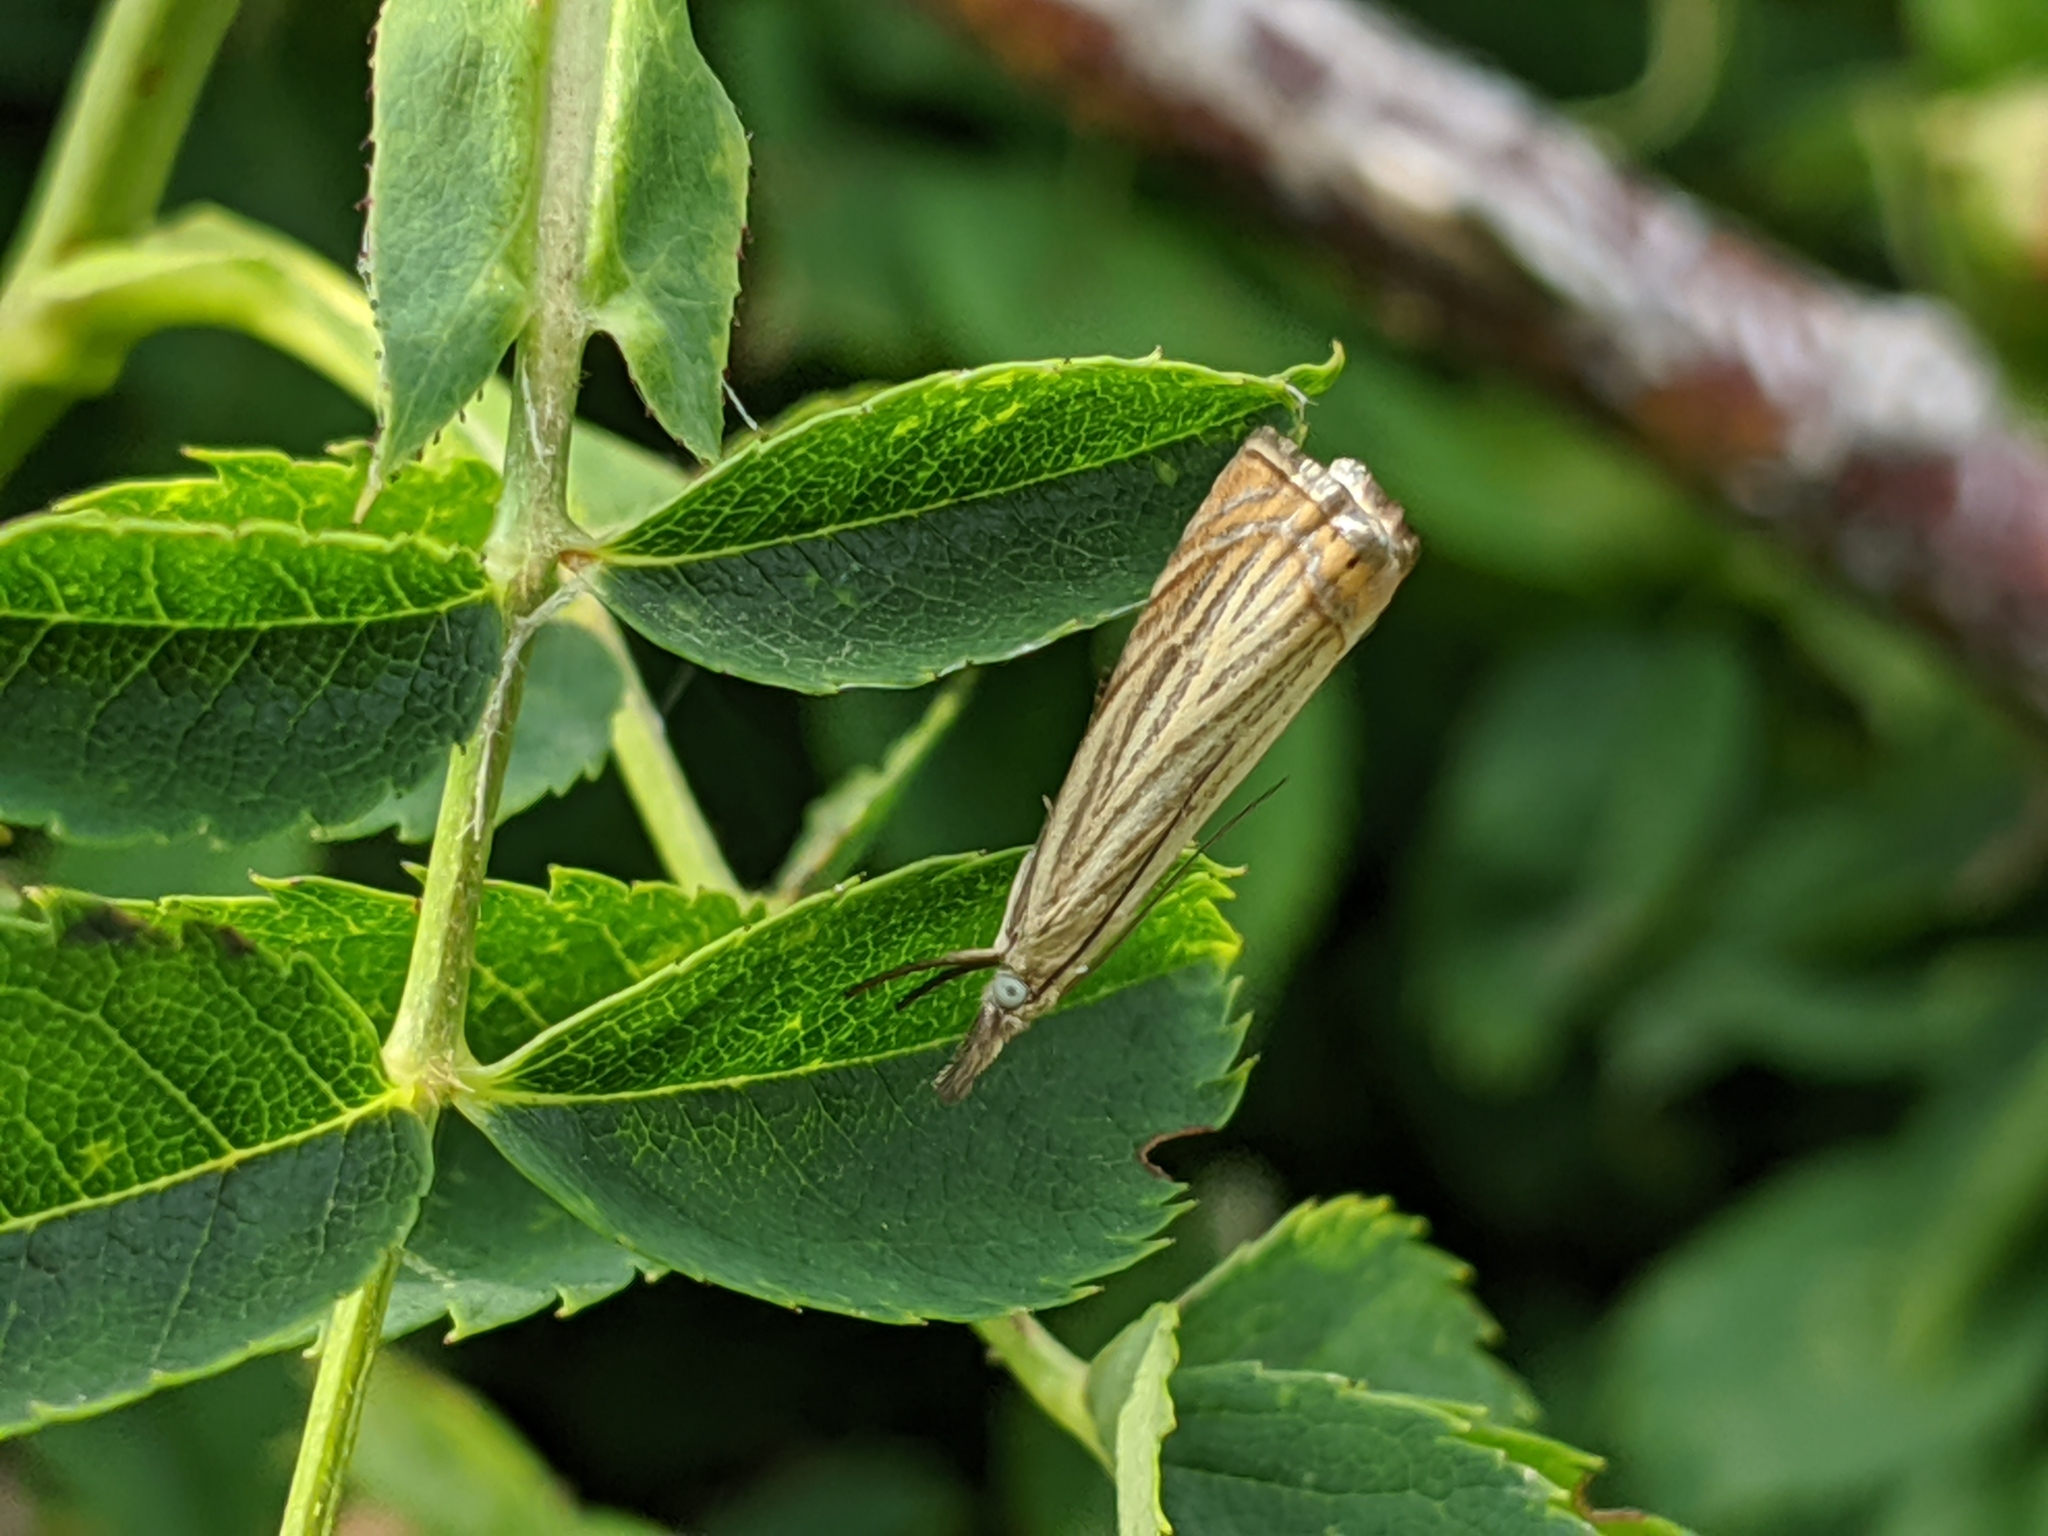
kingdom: Animalia
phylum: Arthropoda
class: Insecta
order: Lepidoptera
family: Crambidae
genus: Chrysoteuchia
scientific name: Chrysoteuchia culmella
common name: Garden grass-veneer
